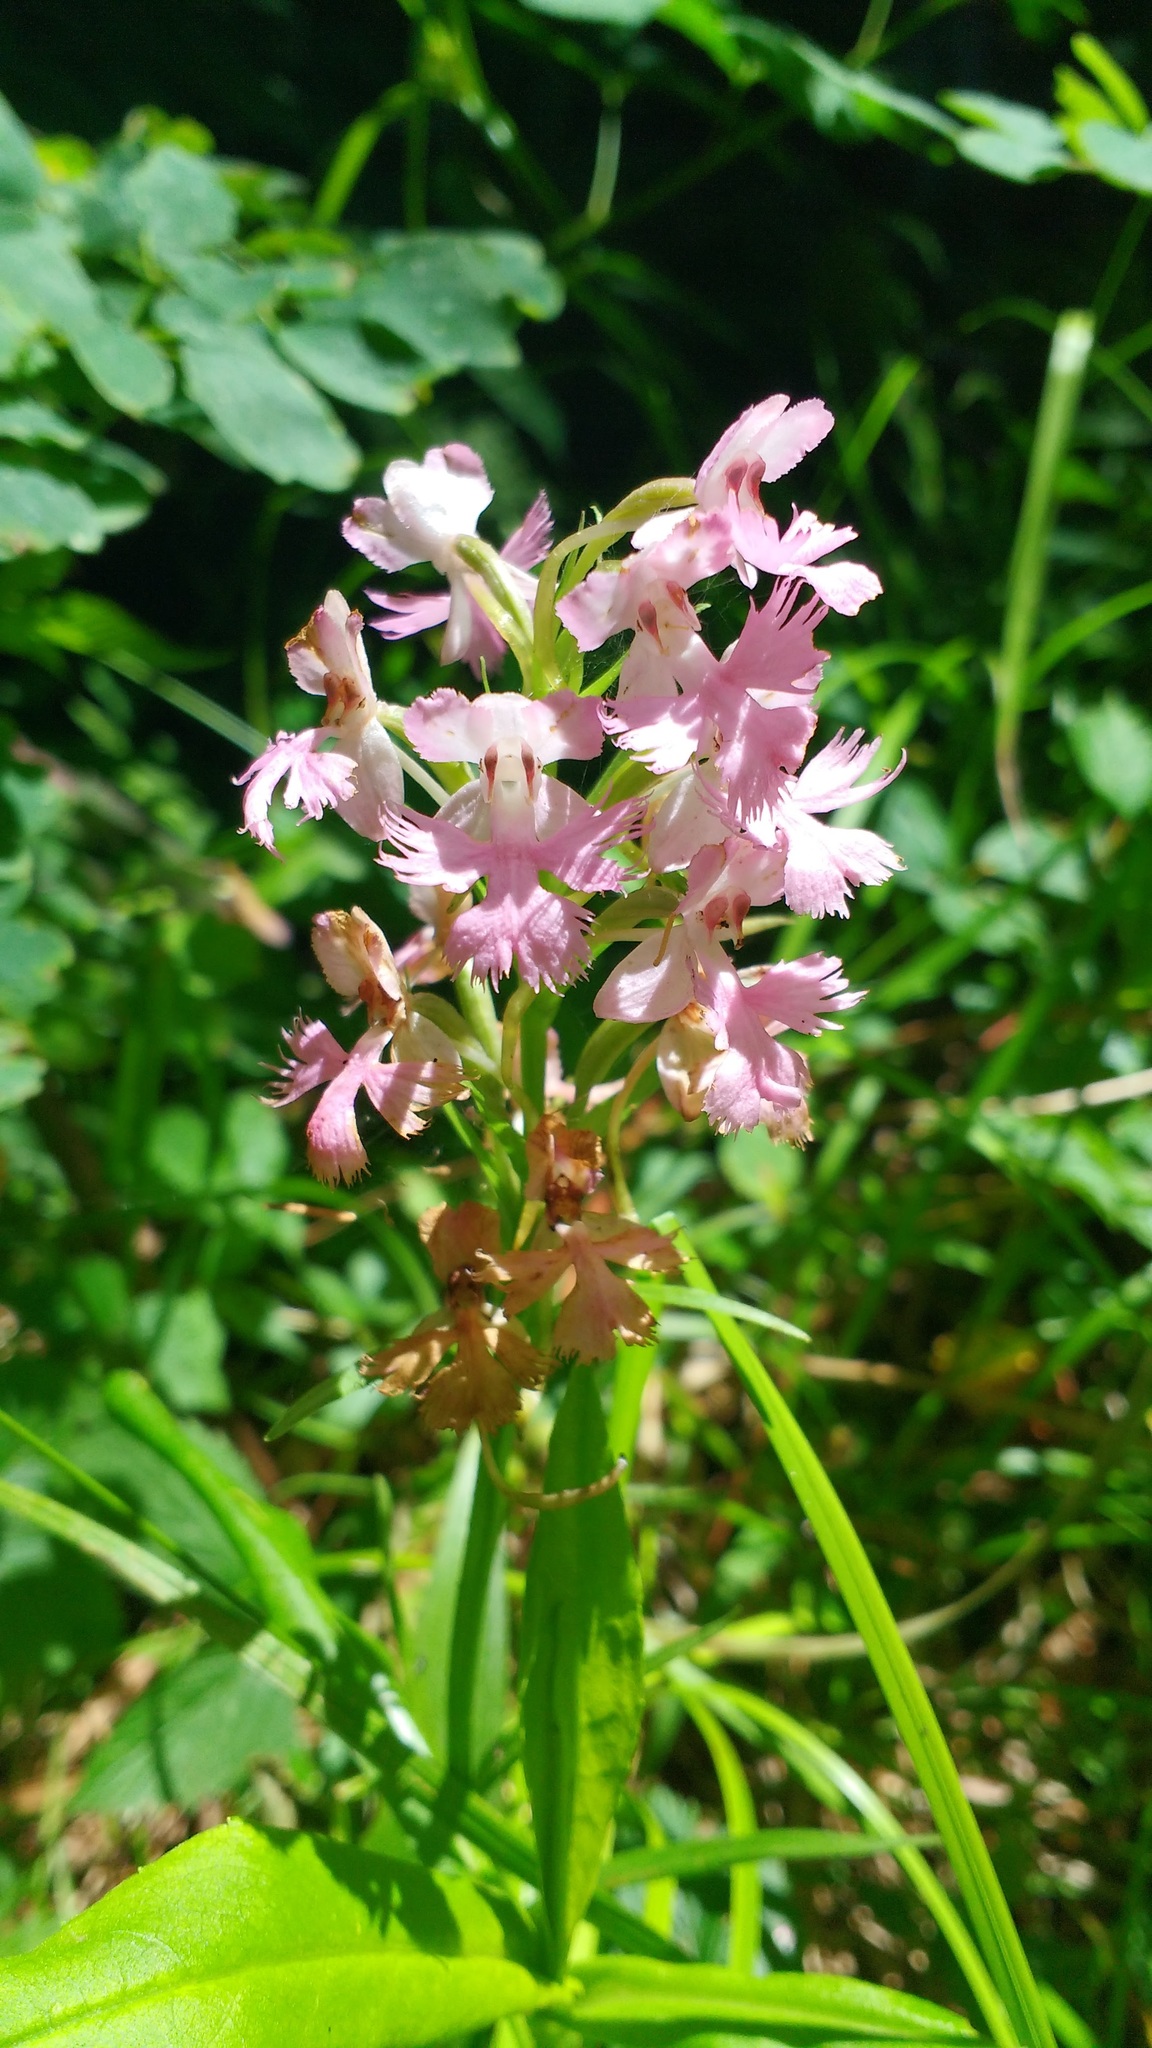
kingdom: Plantae
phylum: Tracheophyta
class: Liliopsida
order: Asparagales
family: Orchidaceae
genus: Platanthera
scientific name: Platanthera grandiflora
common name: Greater purple fringed orchid
